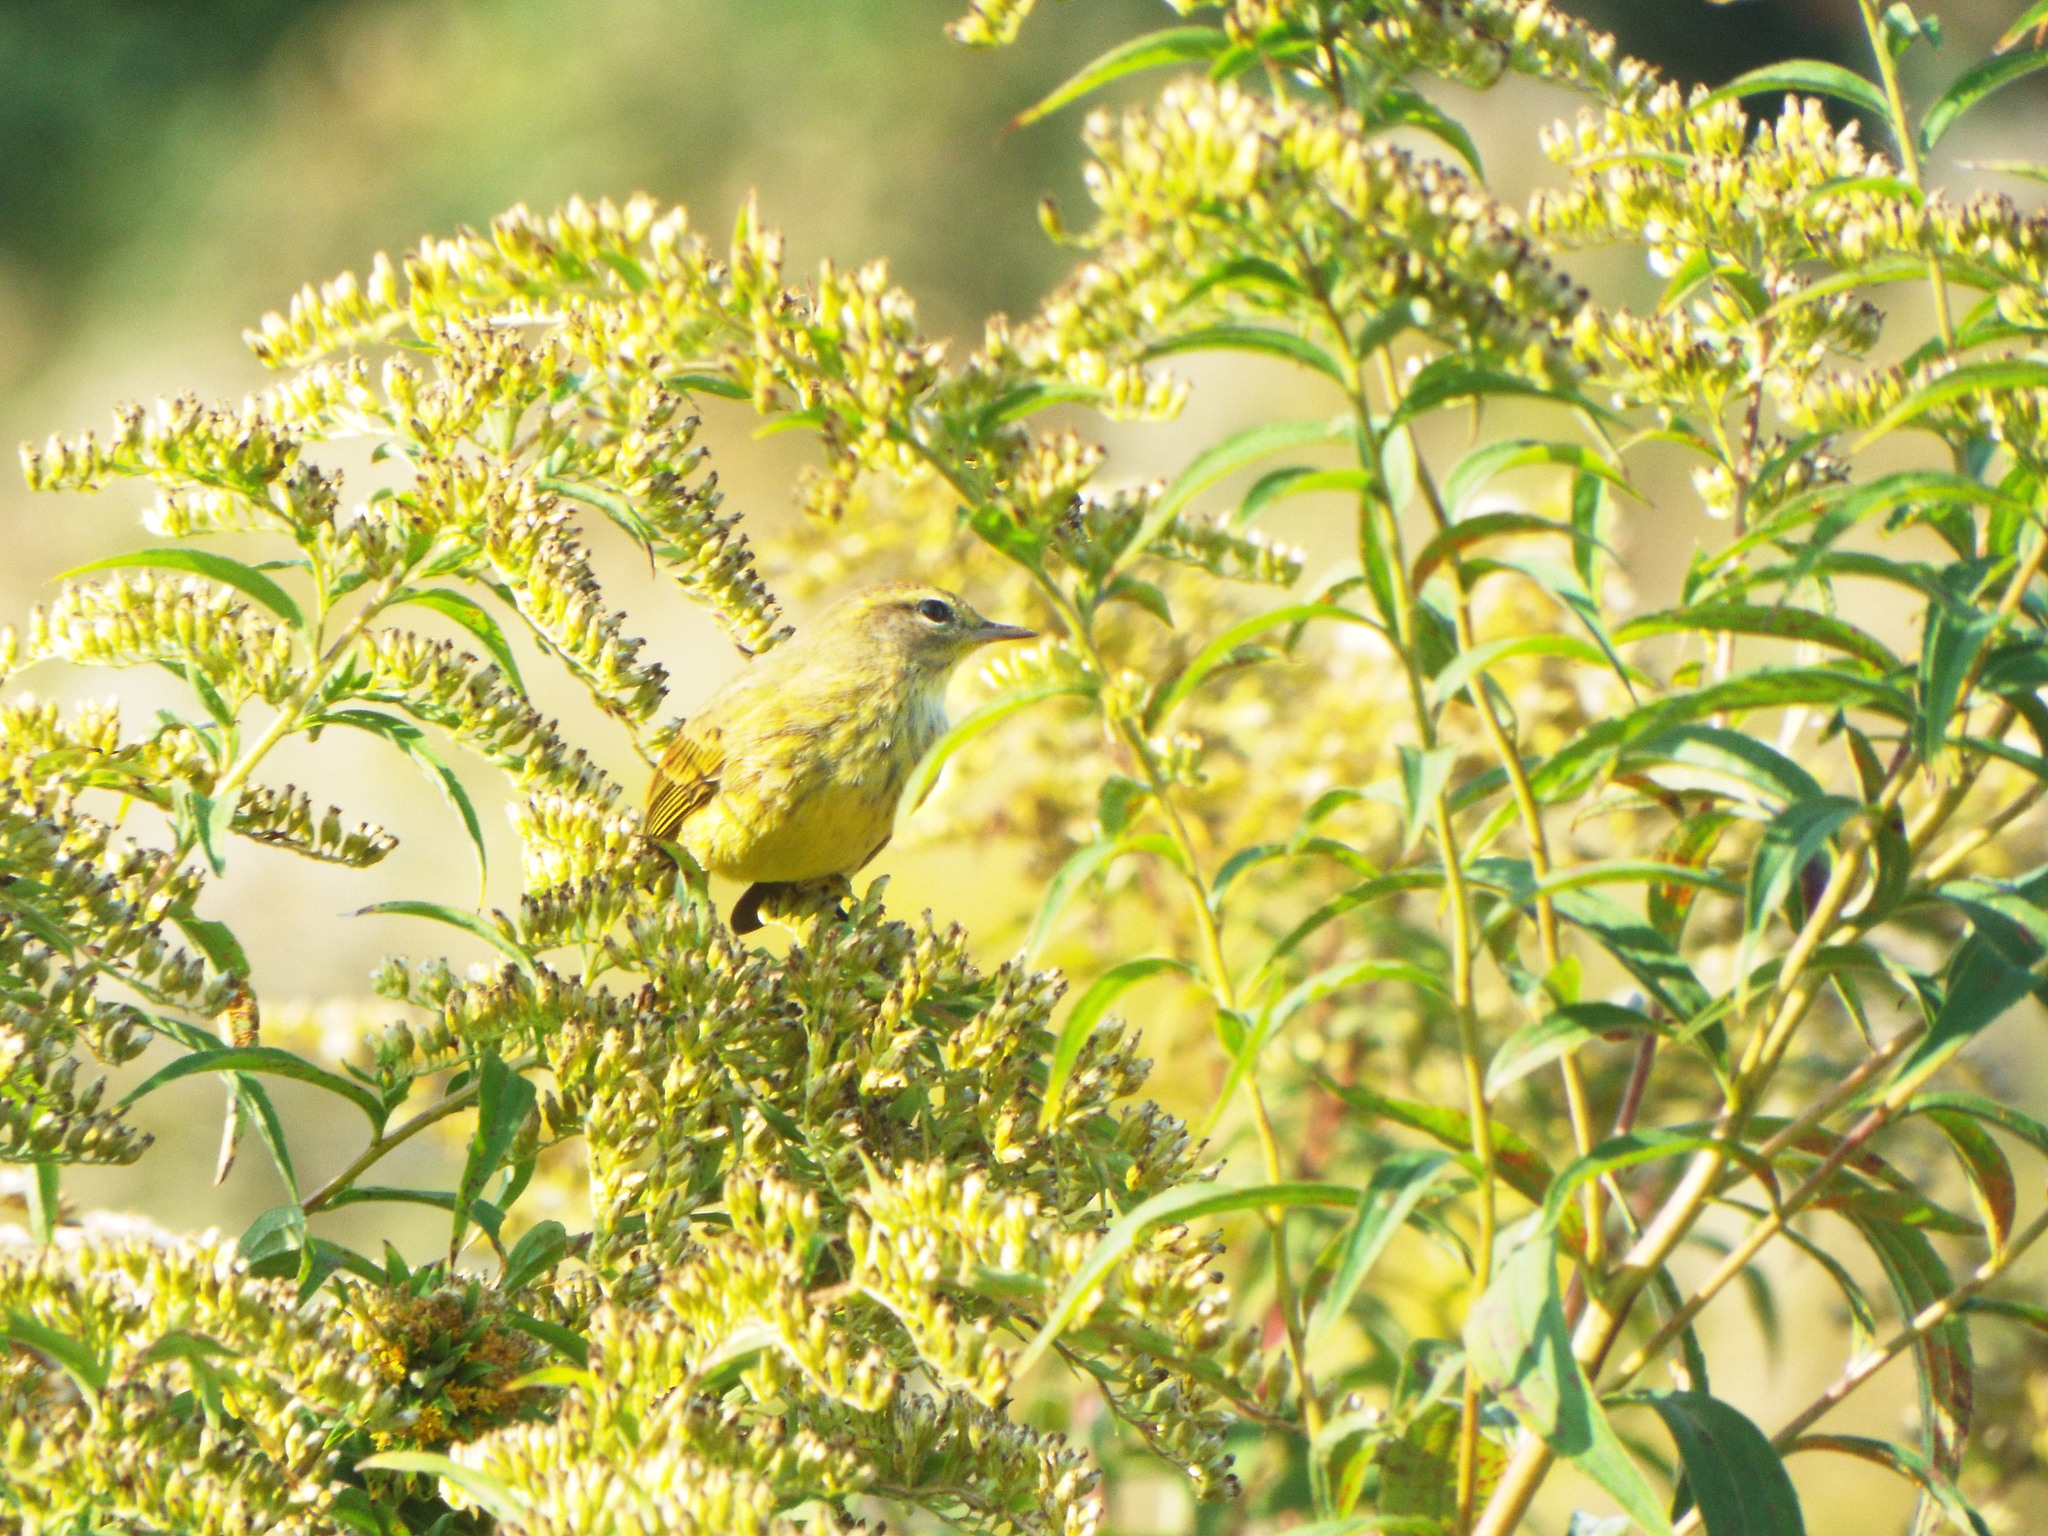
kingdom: Animalia
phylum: Chordata
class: Aves
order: Passeriformes
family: Parulidae
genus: Setophaga
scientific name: Setophaga palmarum
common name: Palm warbler
